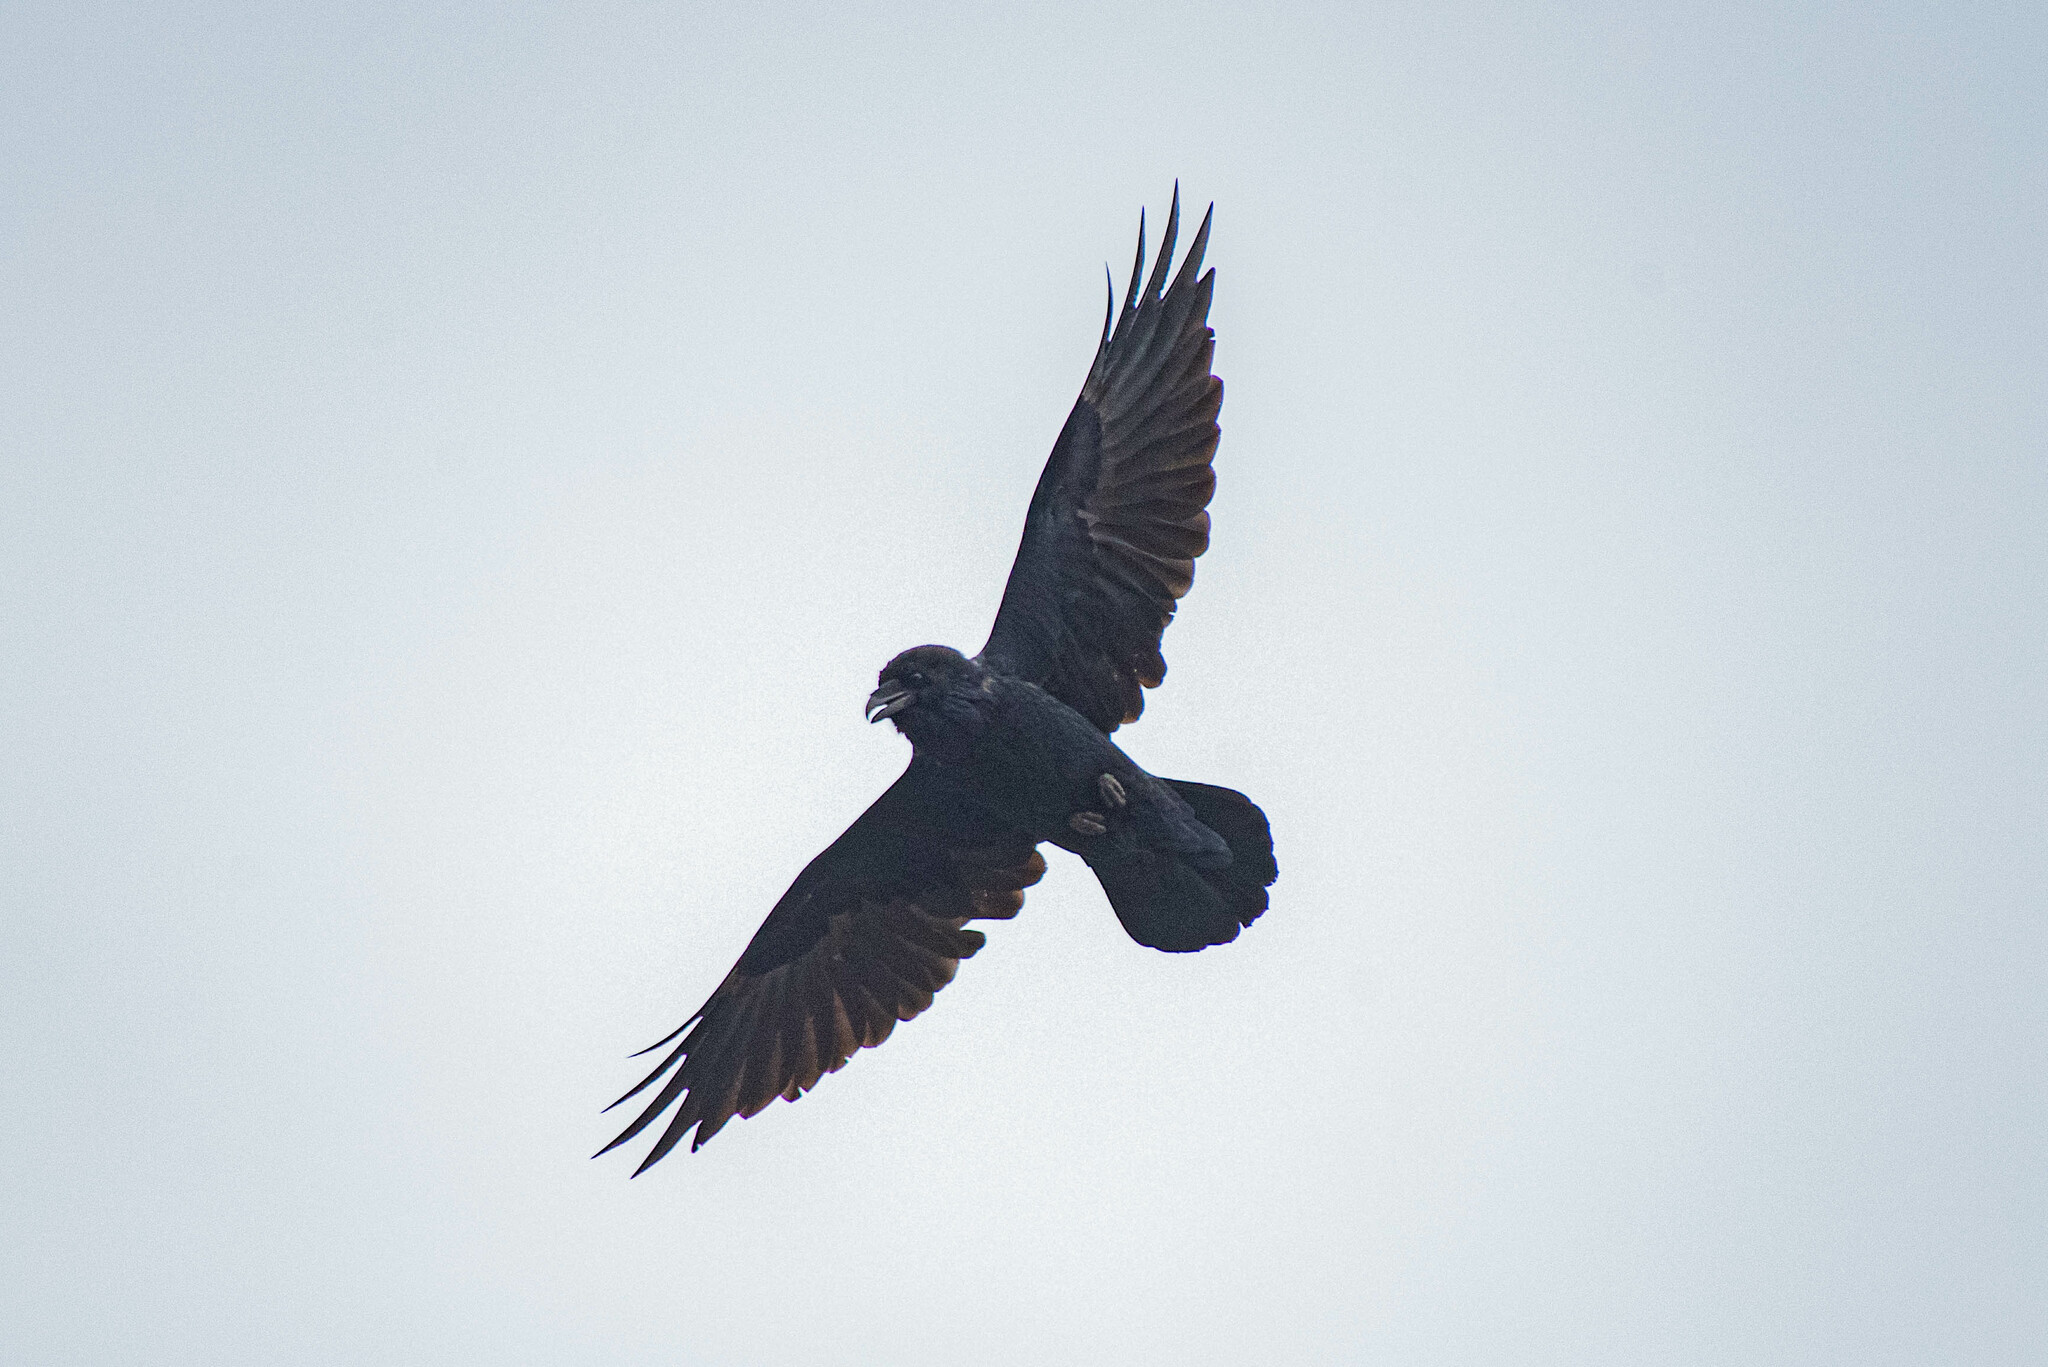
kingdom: Animalia
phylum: Chordata
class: Aves
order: Passeriformes
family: Corvidae
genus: Corvus
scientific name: Corvus corax
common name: Common raven
